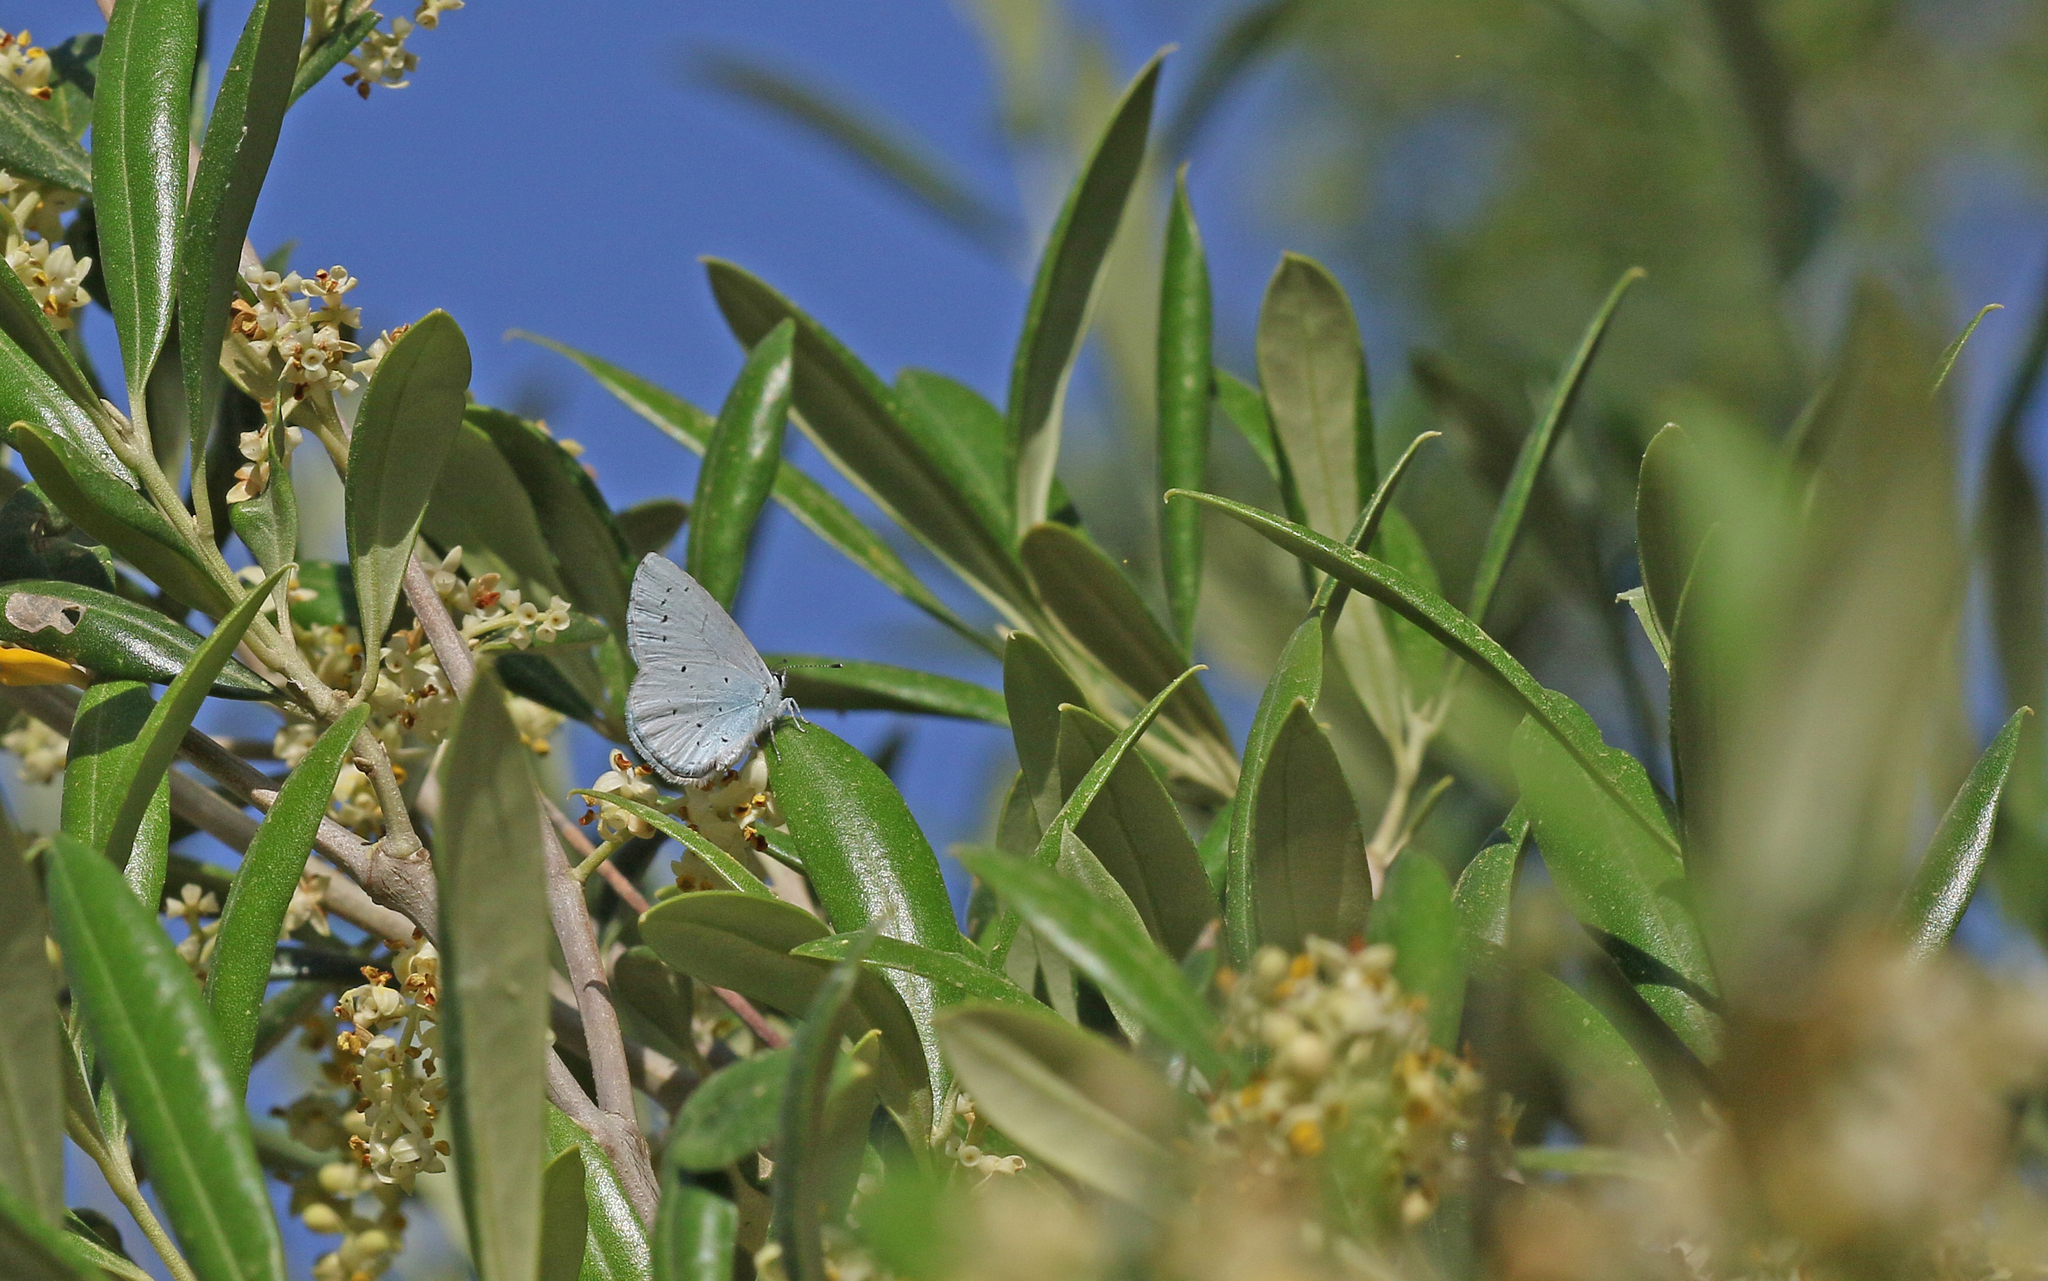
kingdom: Animalia
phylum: Arthropoda
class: Insecta
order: Lepidoptera
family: Lycaenidae
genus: Celastrina
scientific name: Celastrina argiolus
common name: Holly blue
